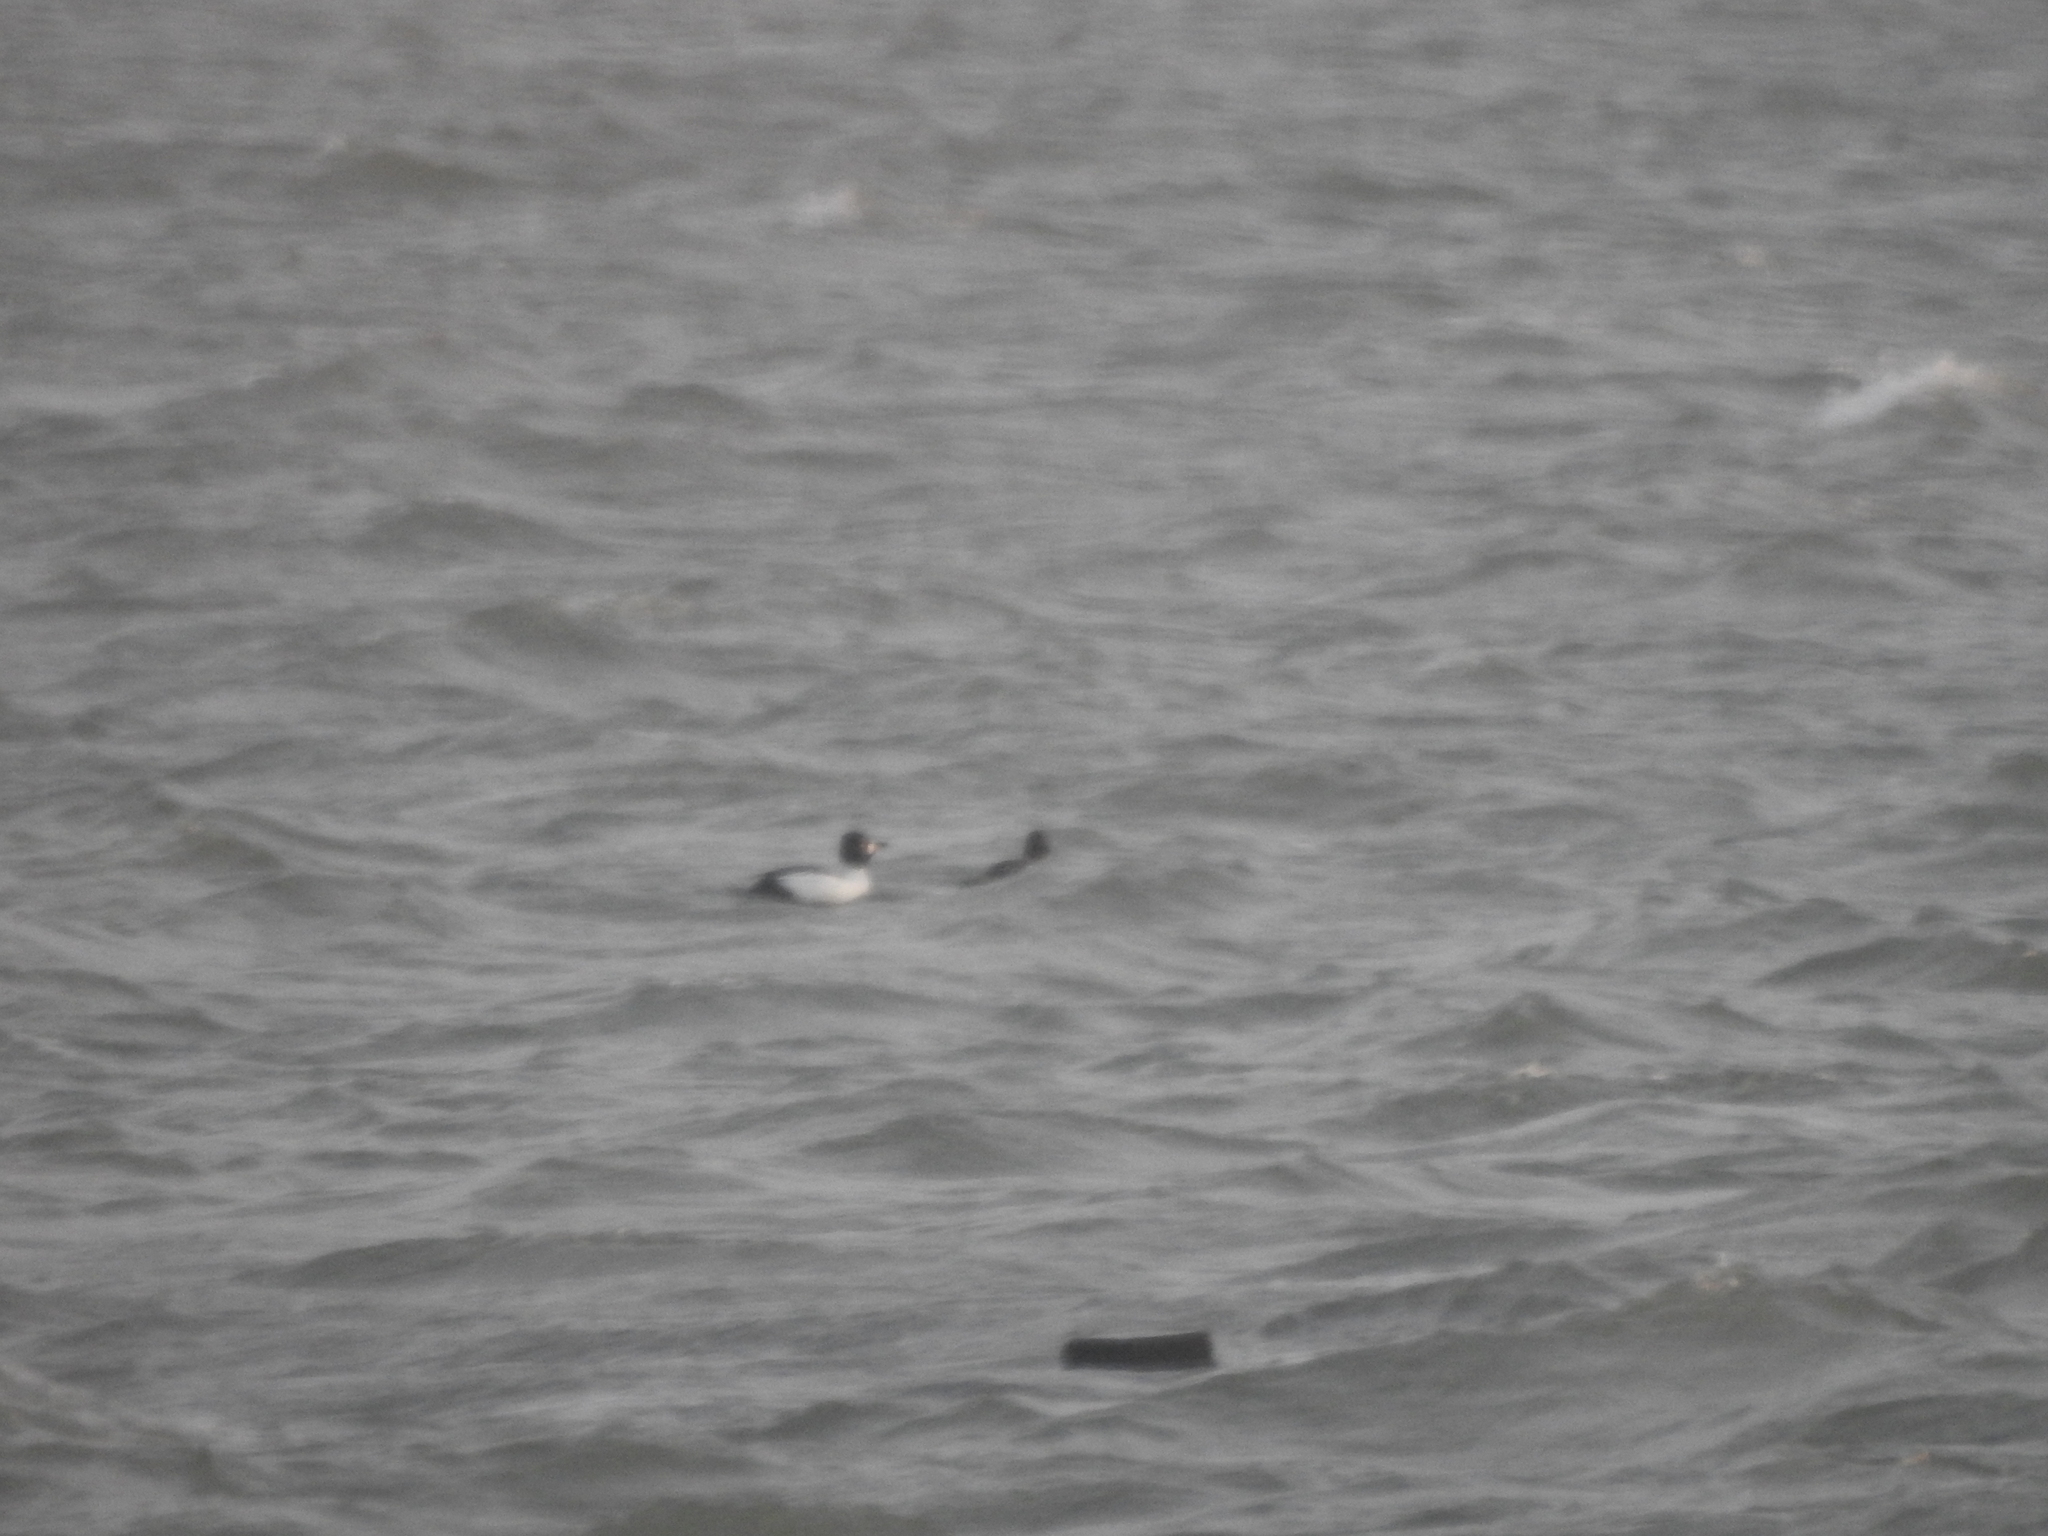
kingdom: Animalia
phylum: Chordata
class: Aves
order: Anseriformes
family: Anatidae
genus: Bucephala
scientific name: Bucephala clangula
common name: Common goldeneye
